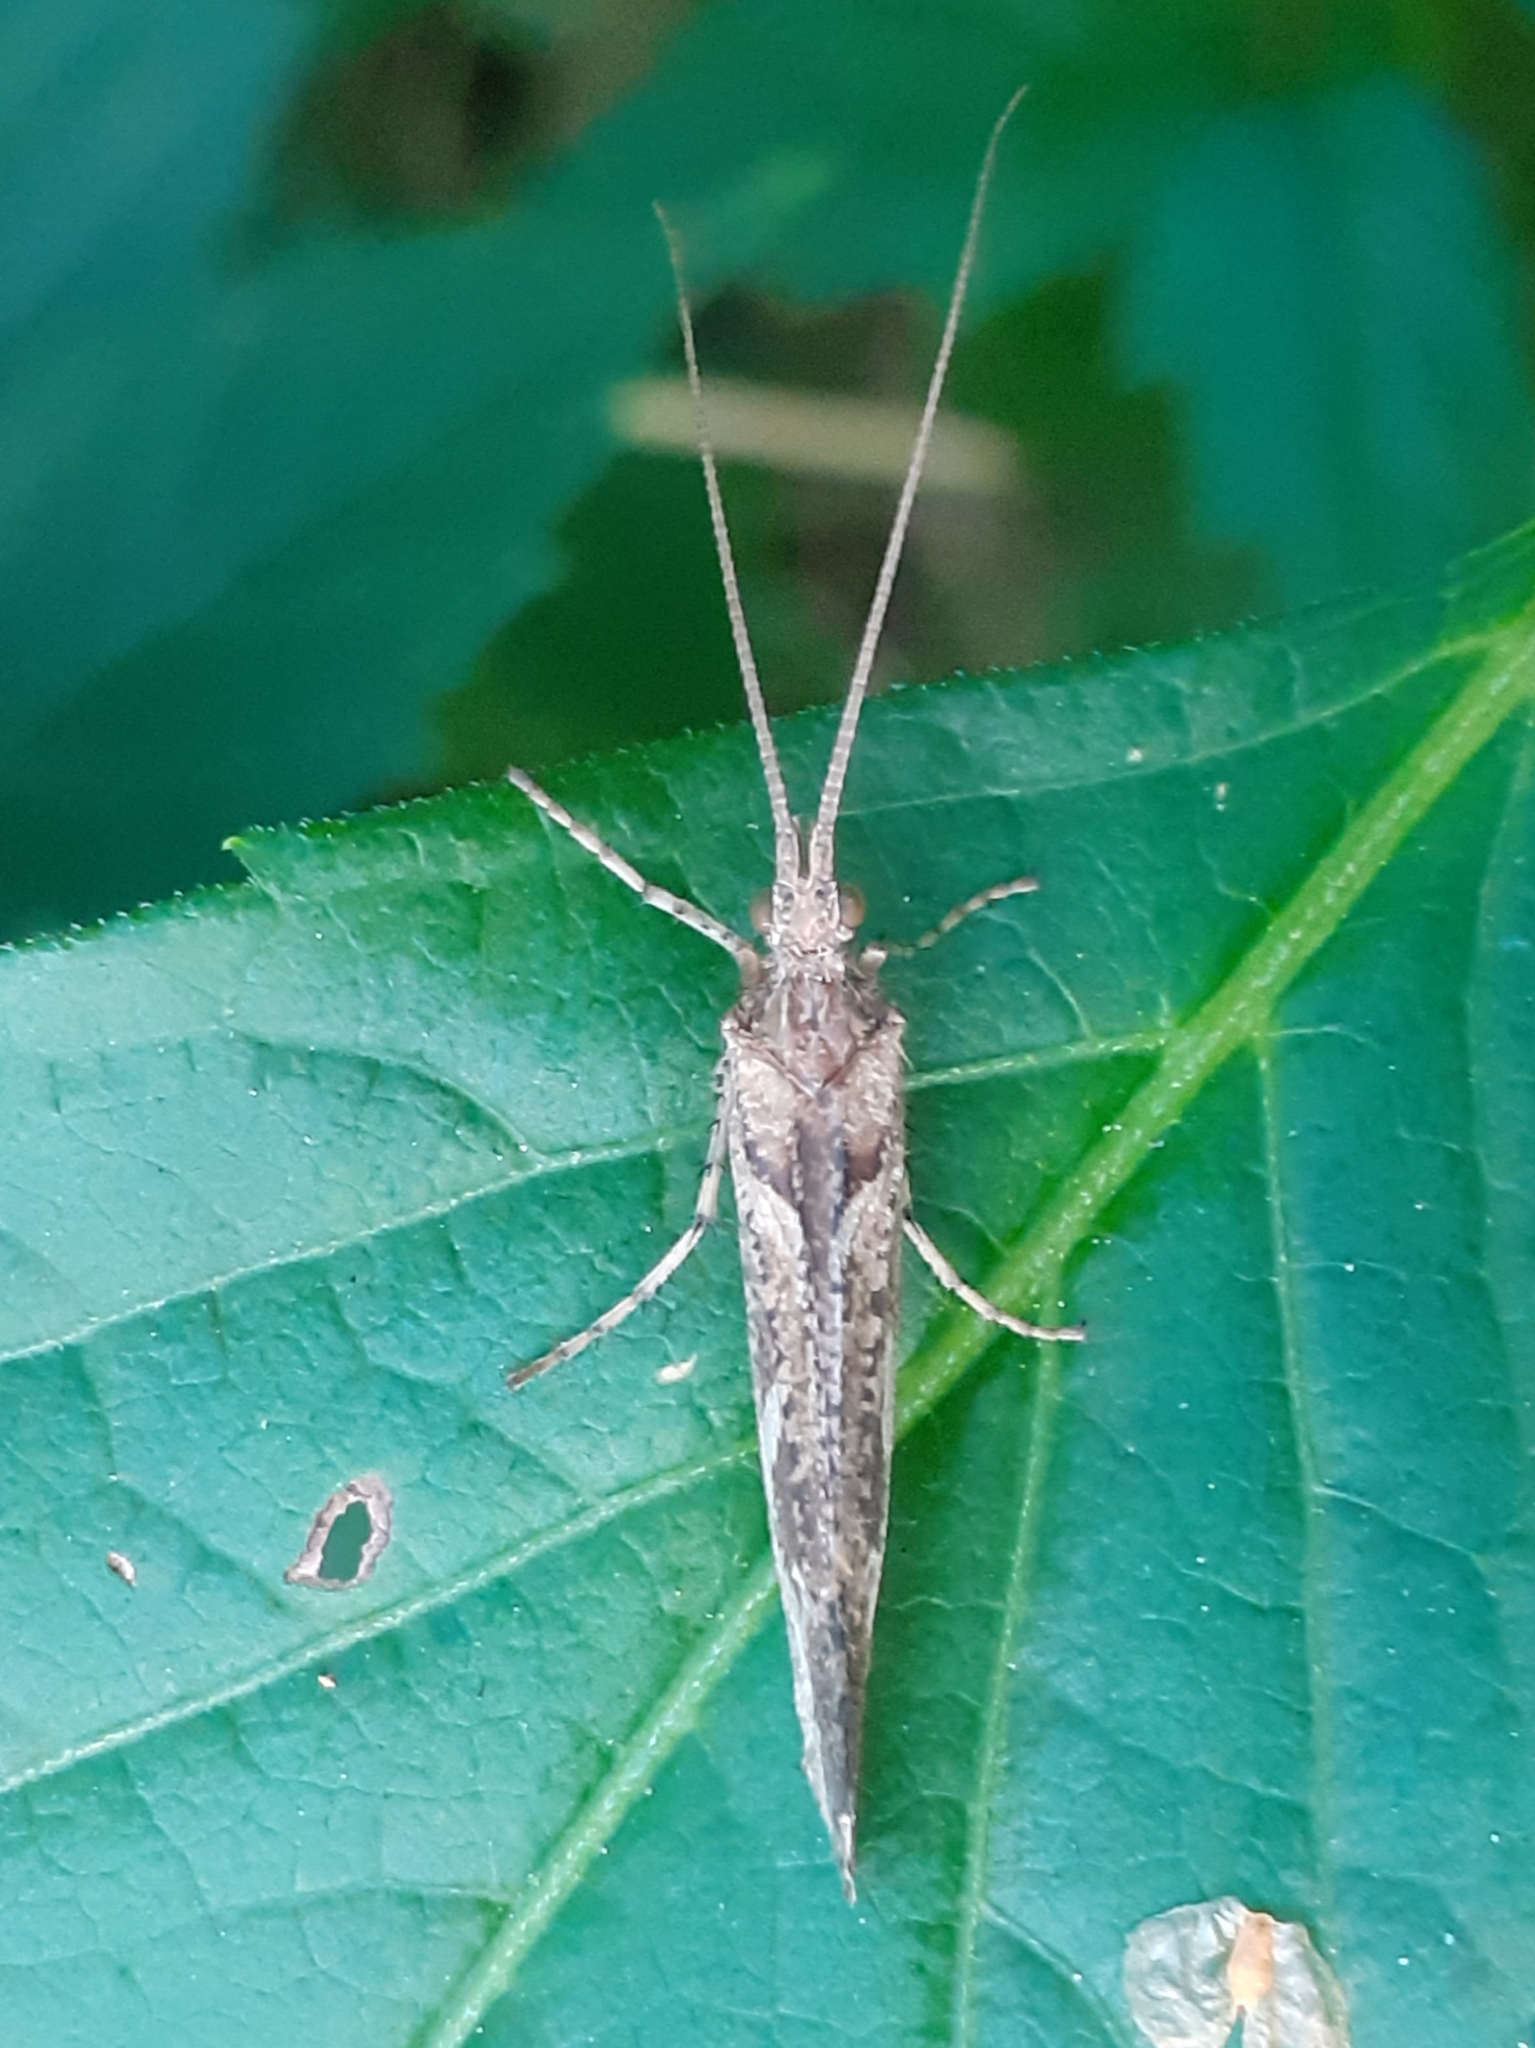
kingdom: Animalia
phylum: Arthropoda
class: Insecta
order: Trichoptera
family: Limnephilidae
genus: Glyphotaelius
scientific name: Glyphotaelius pellucidus
